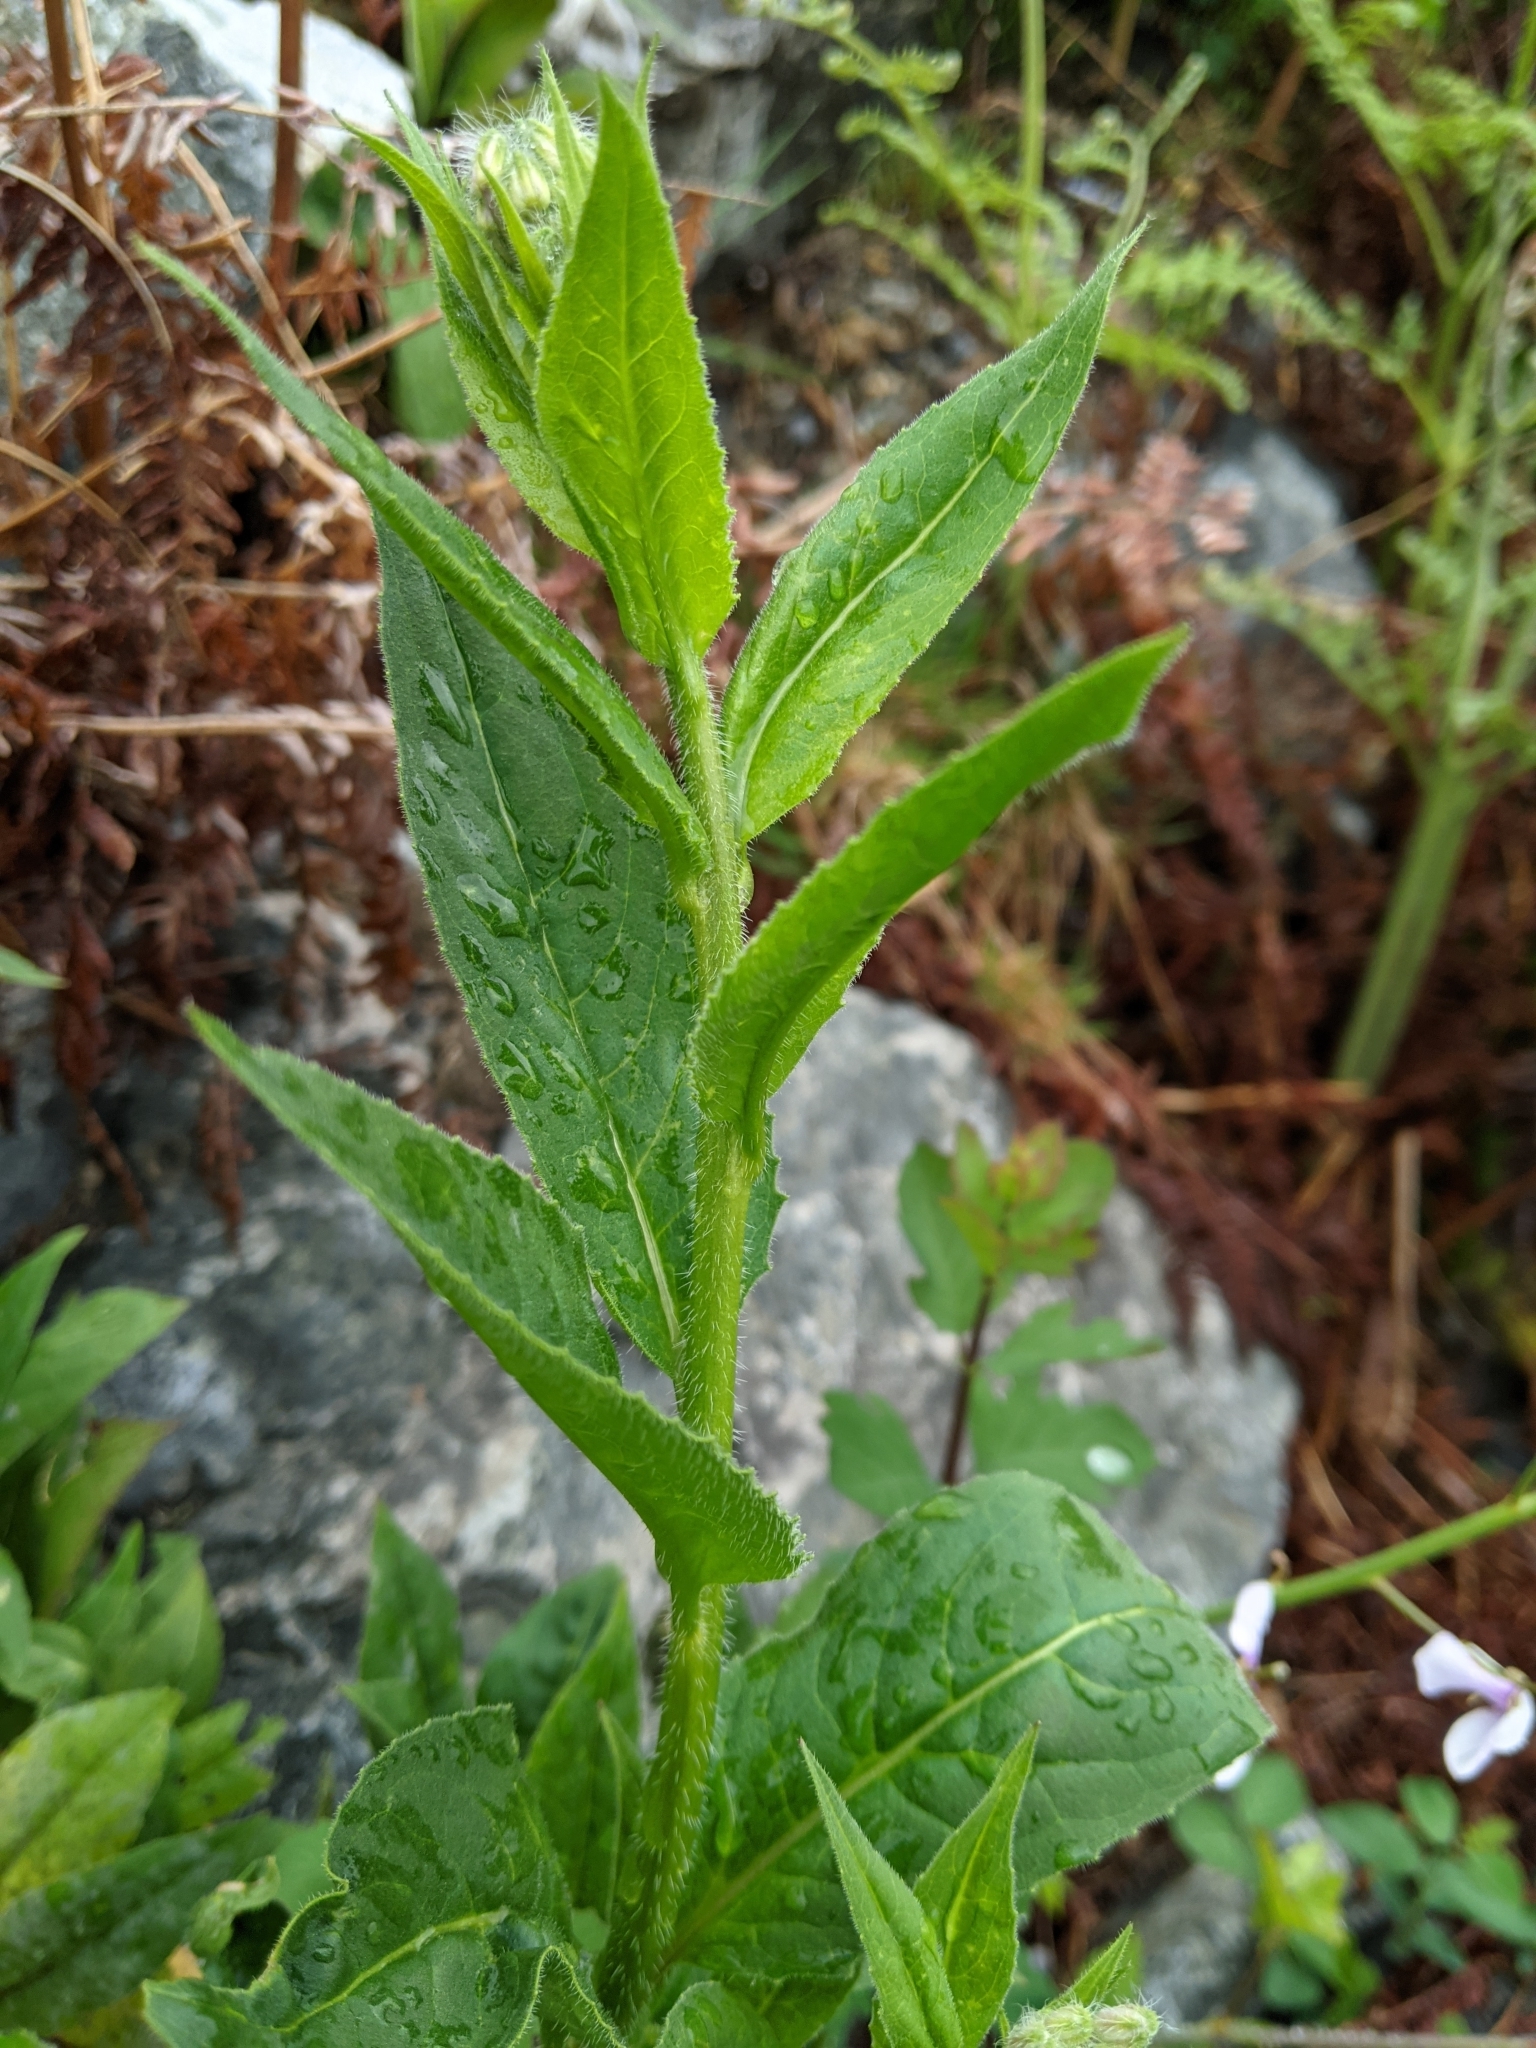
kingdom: Plantae
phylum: Tracheophyta
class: Magnoliopsida
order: Brassicales
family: Brassicaceae
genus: Hesperis
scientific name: Hesperis matronalis
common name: Dame's-violet
